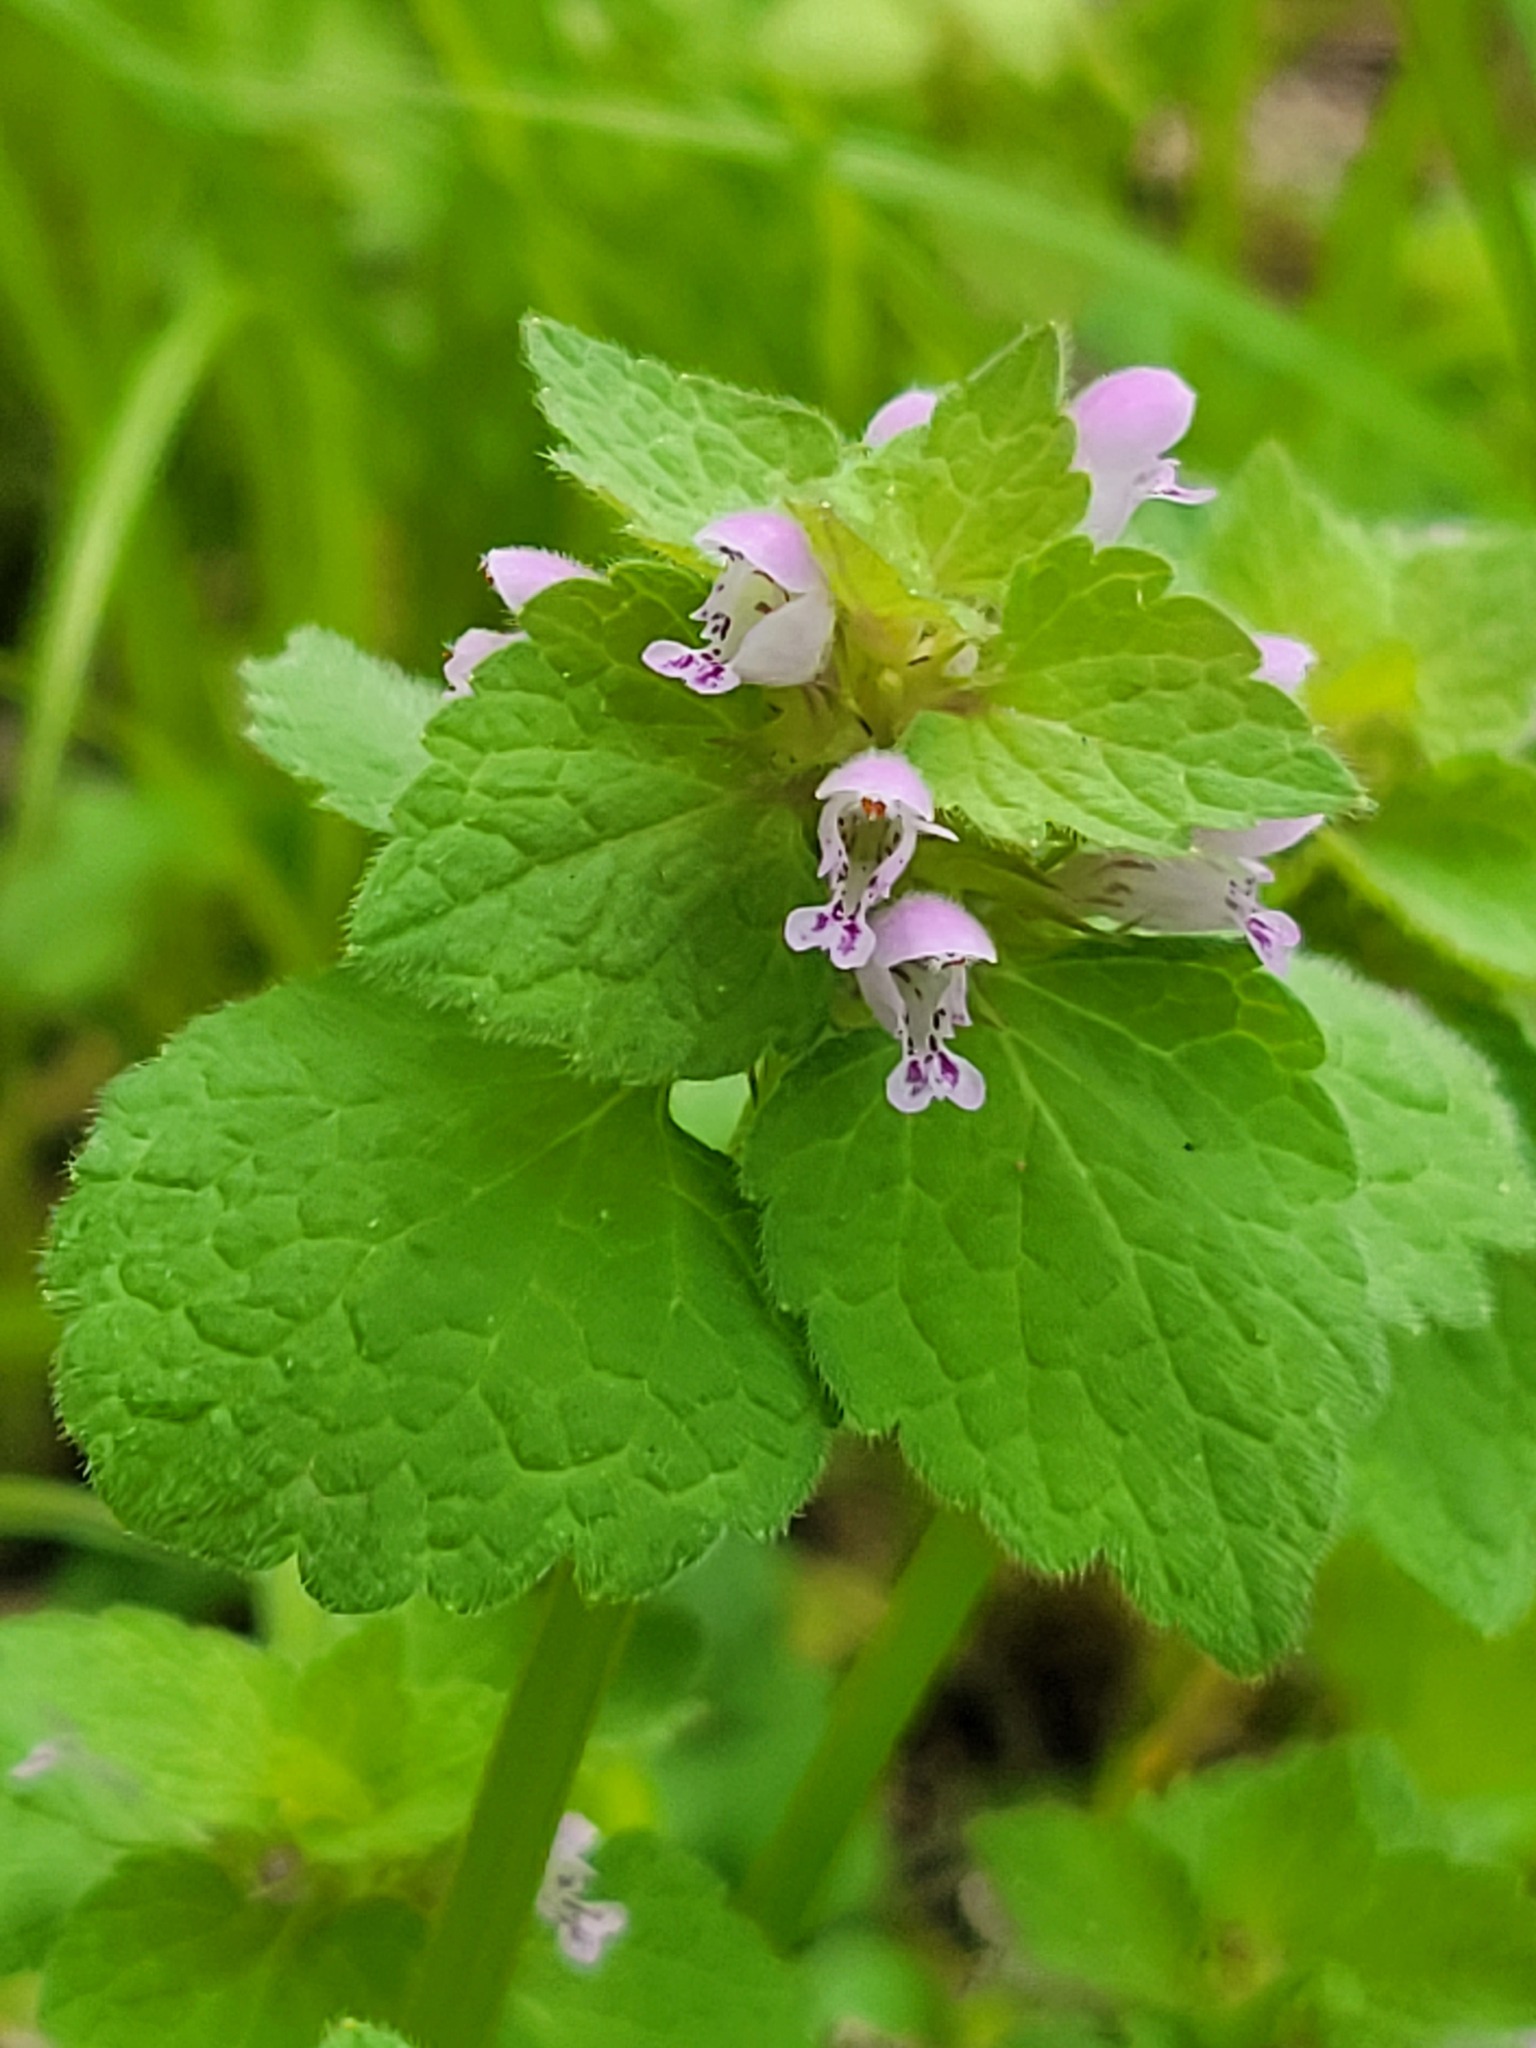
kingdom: Plantae
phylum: Tracheophyta
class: Magnoliopsida
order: Lamiales
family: Lamiaceae
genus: Lamium
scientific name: Lamium purpureum
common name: Red dead-nettle
